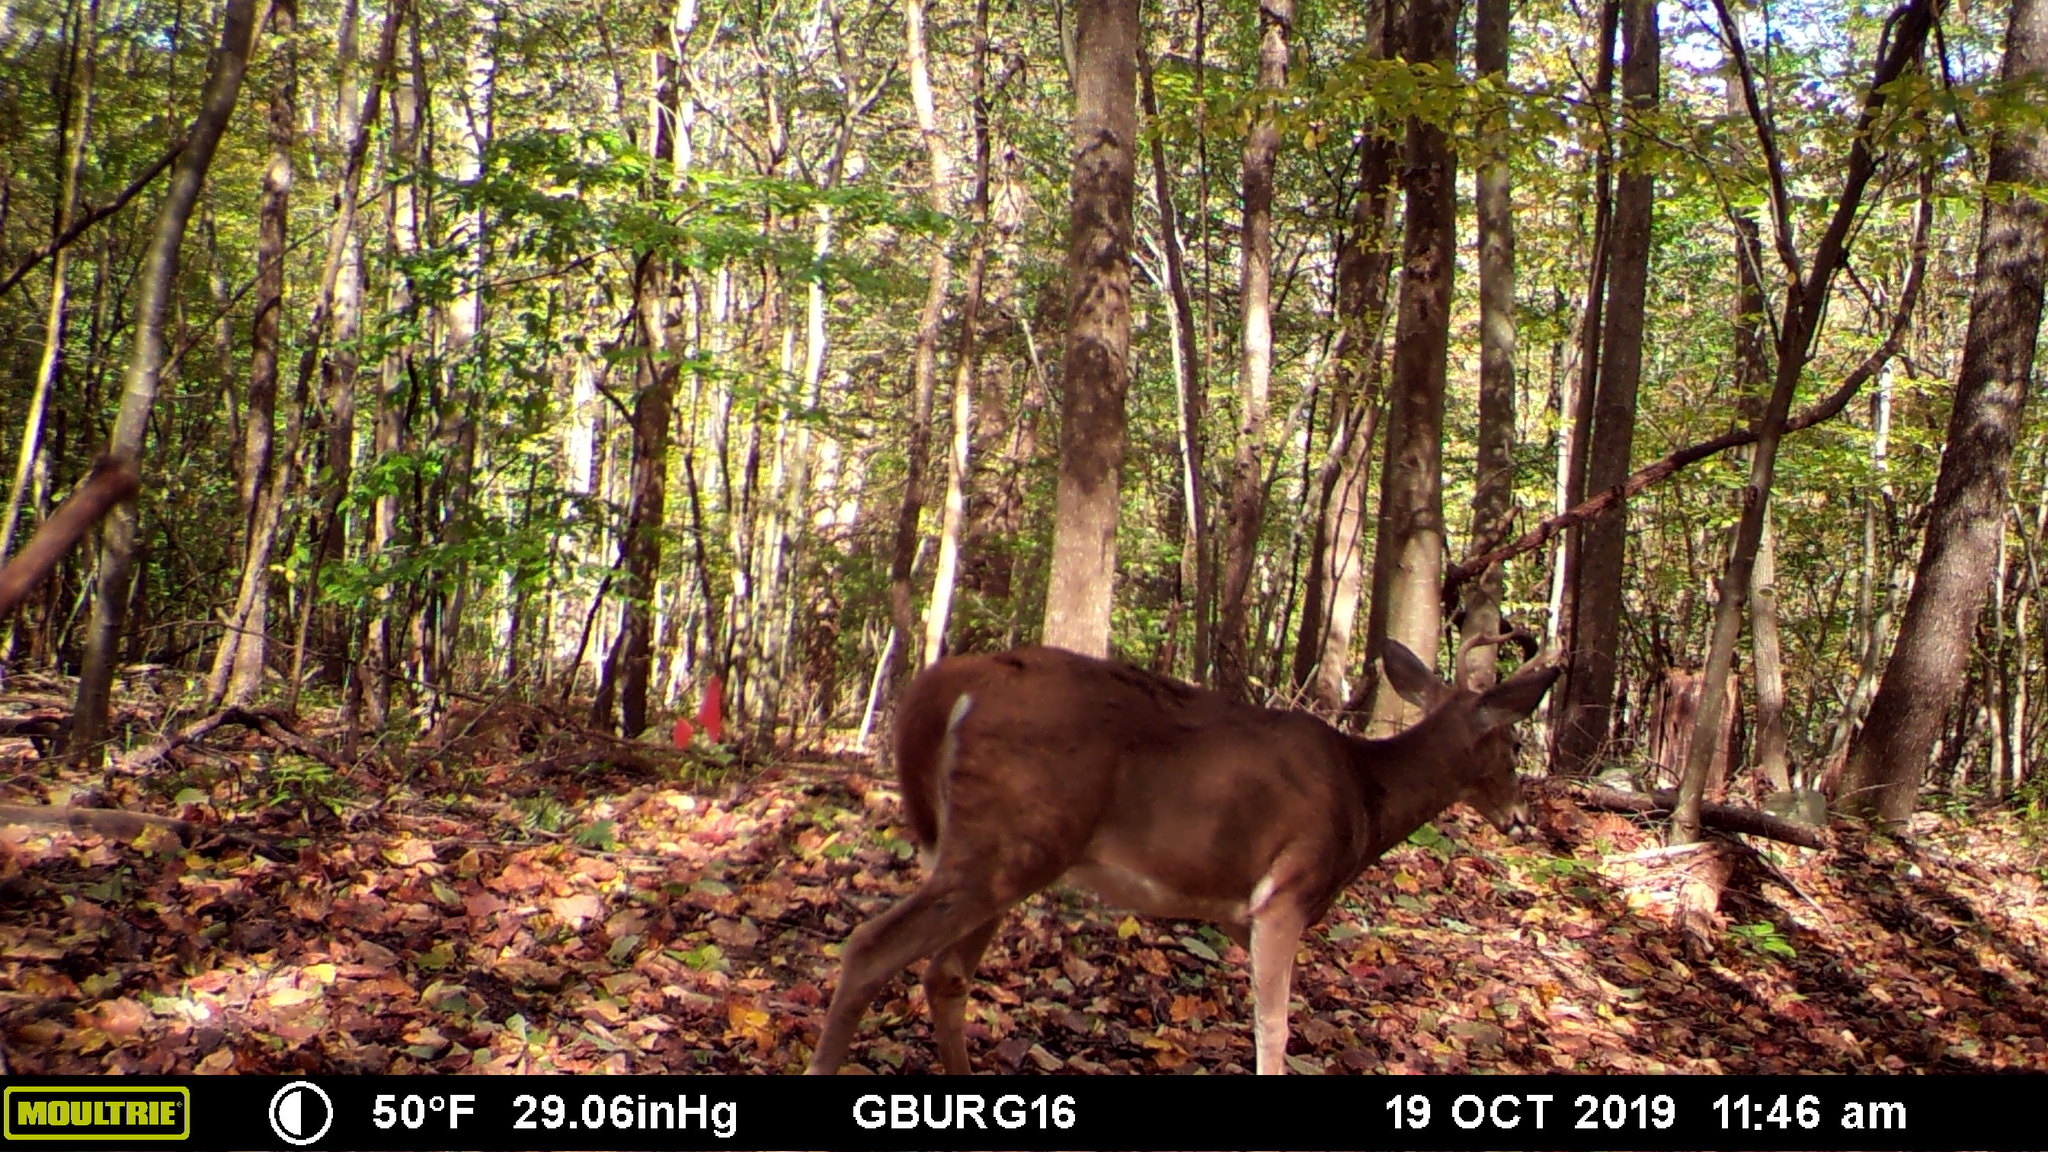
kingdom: Animalia
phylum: Chordata
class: Mammalia
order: Artiodactyla
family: Cervidae
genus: Odocoileus
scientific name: Odocoileus virginianus
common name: White-tailed deer
